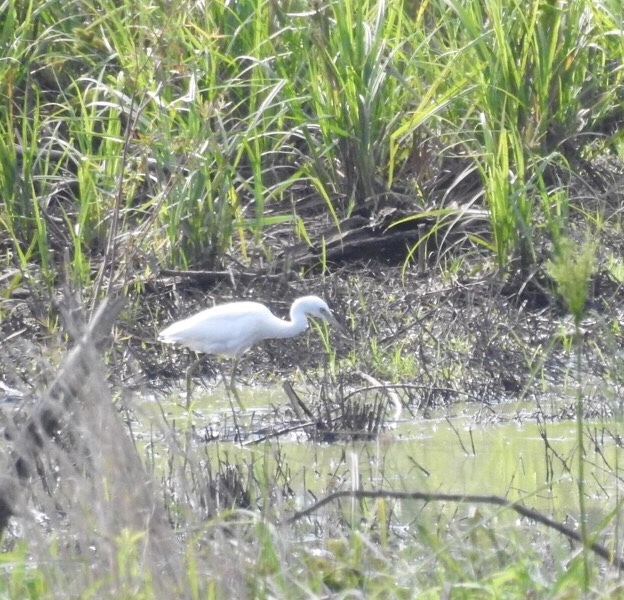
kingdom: Animalia
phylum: Chordata
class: Aves
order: Pelecaniformes
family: Ardeidae
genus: Egretta
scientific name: Egretta caerulea
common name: Little blue heron
